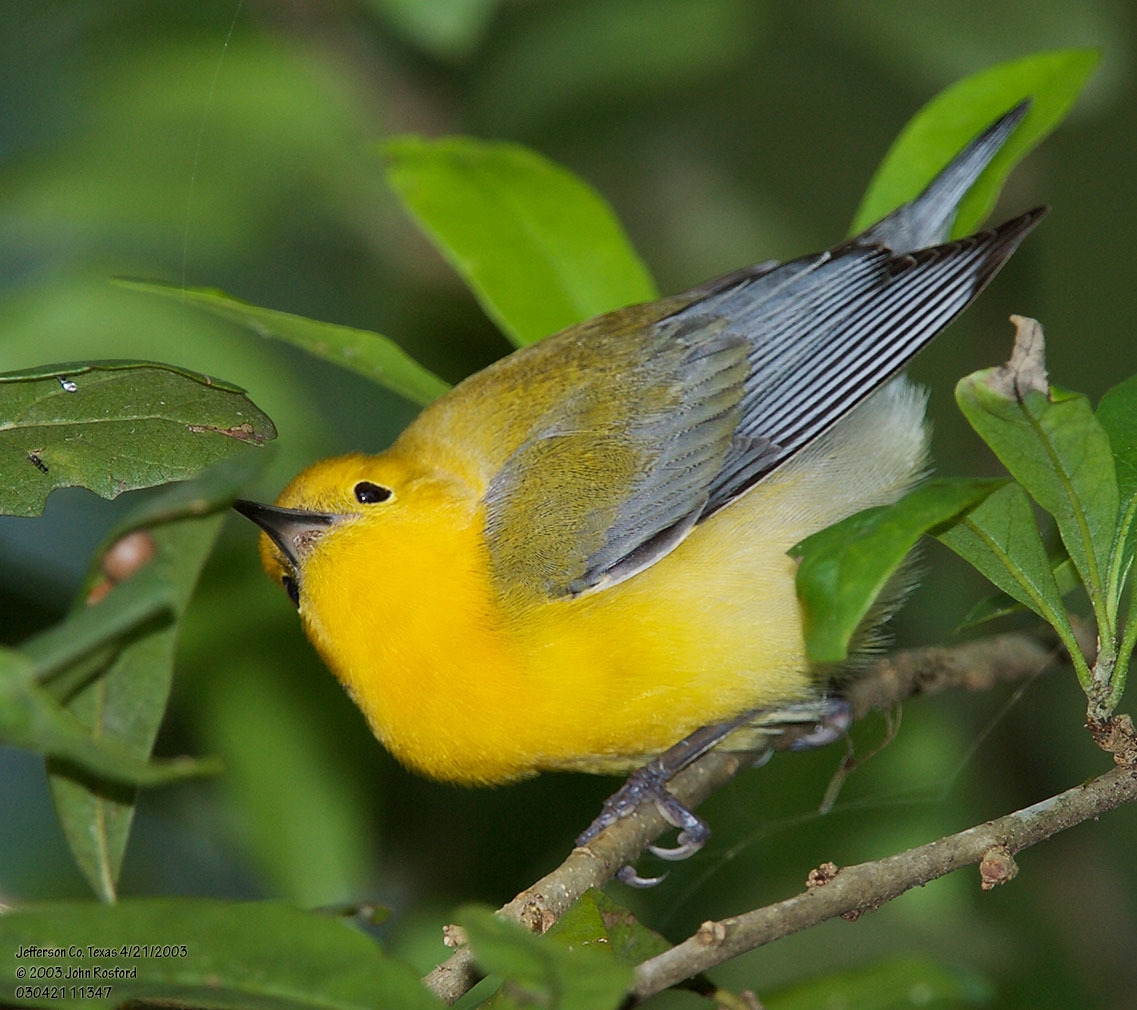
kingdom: Animalia
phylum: Chordata
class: Aves
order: Passeriformes
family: Parulidae
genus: Protonotaria
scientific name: Protonotaria citrea
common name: Prothonotary warbler
